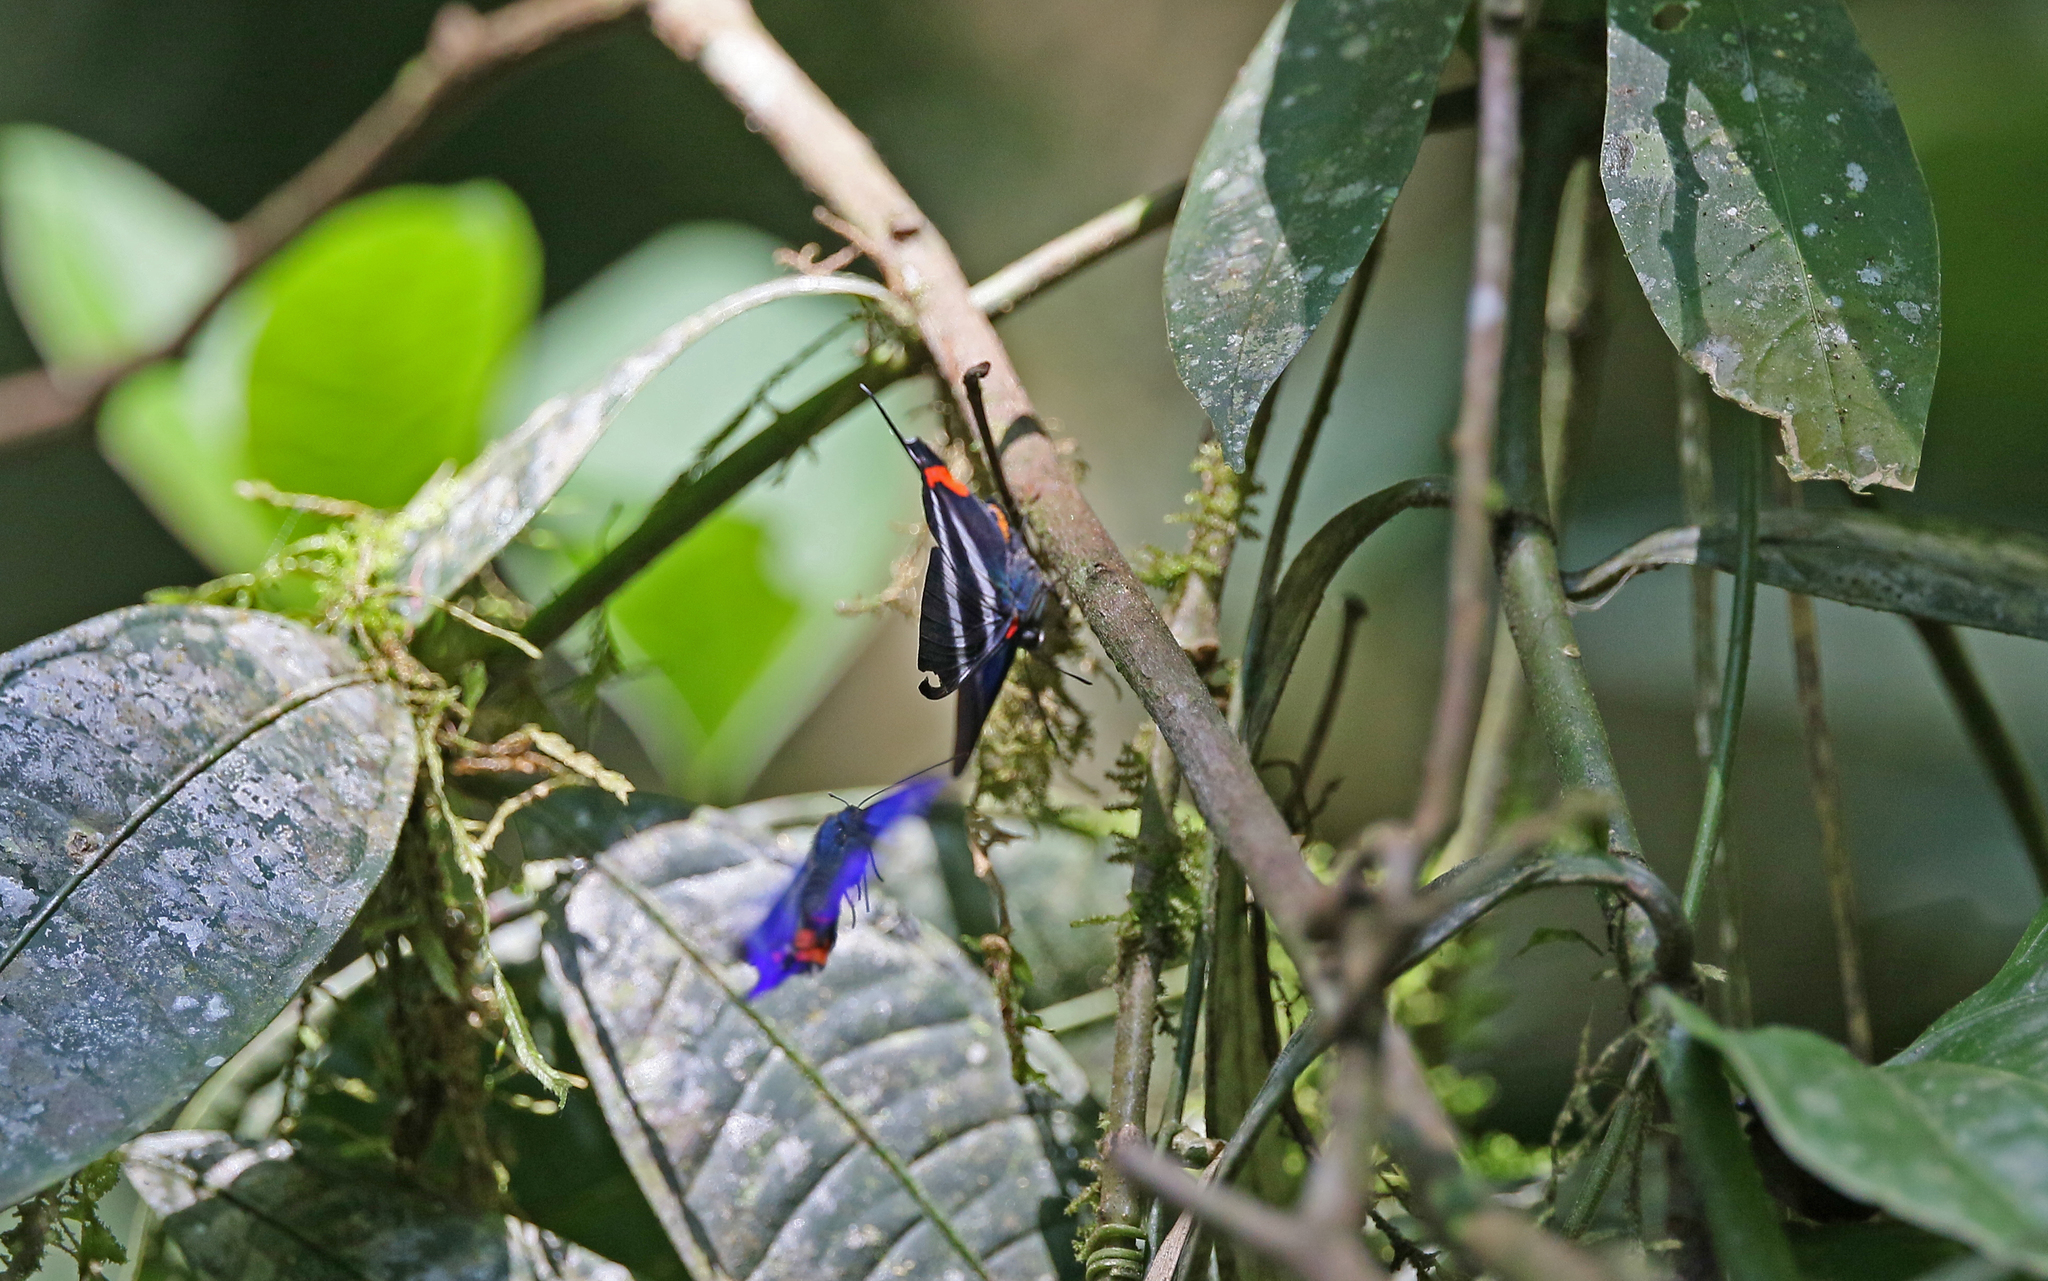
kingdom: Animalia
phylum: Arthropoda
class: Insecta
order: Lepidoptera
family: Riodinidae
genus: Rhetus
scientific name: Rhetus dysonii
